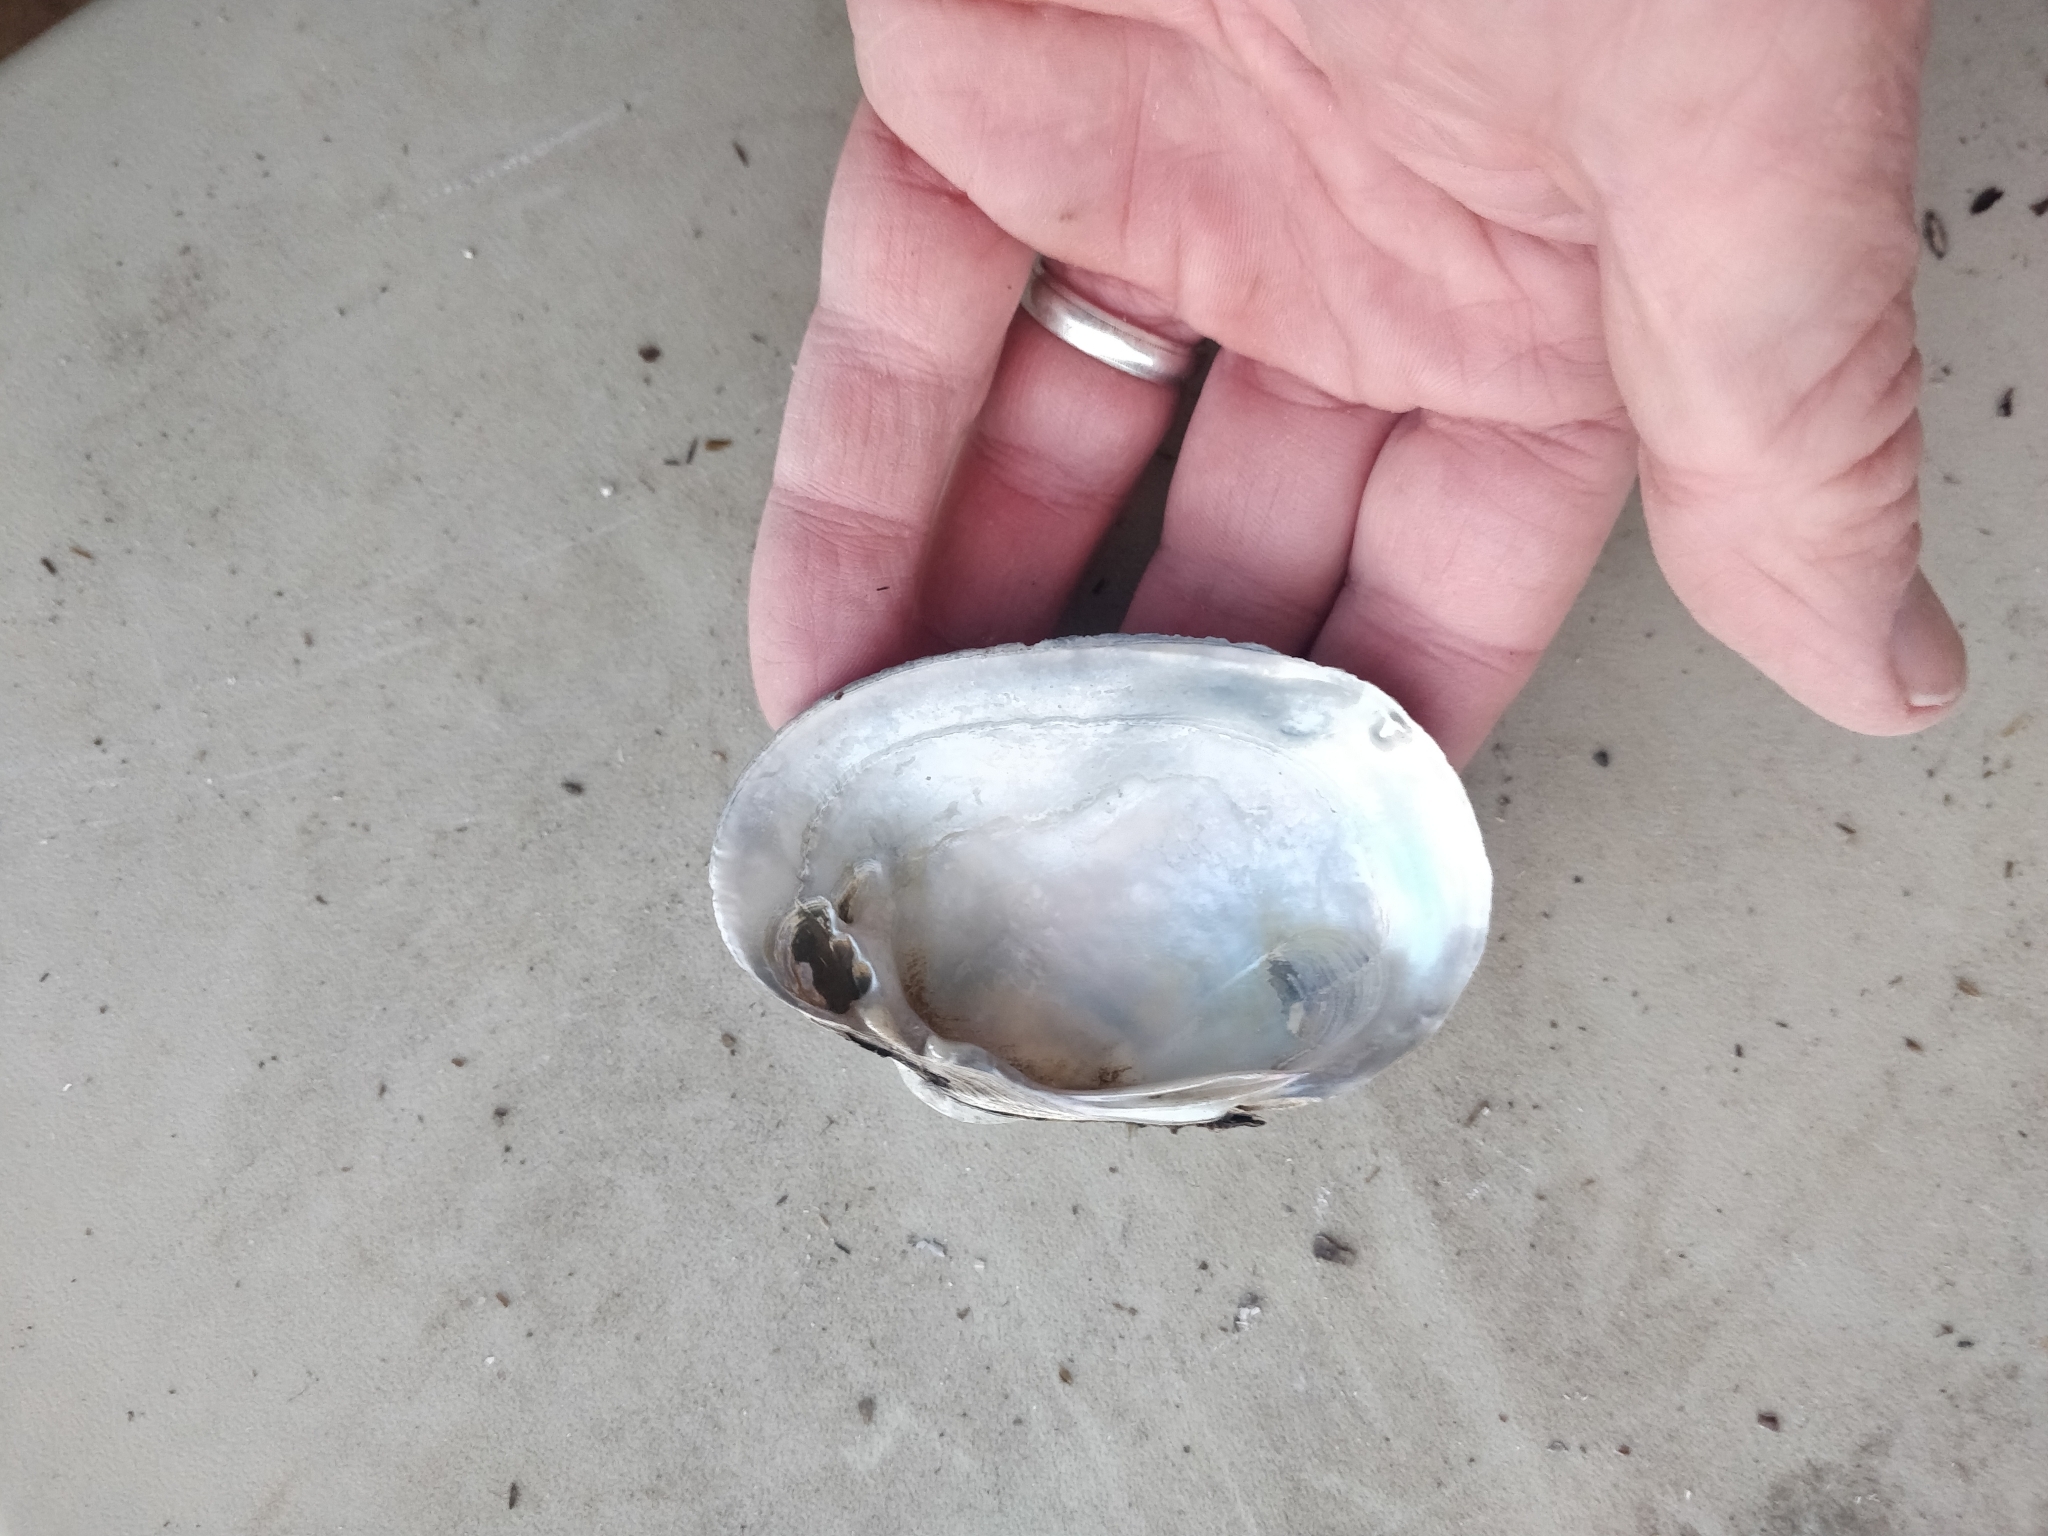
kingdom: Animalia
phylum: Mollusca
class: Bivalvia
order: Unionida
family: Unionidae
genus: Lampsilis
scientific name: Lampsilis cardium
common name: Plain pocketbook
